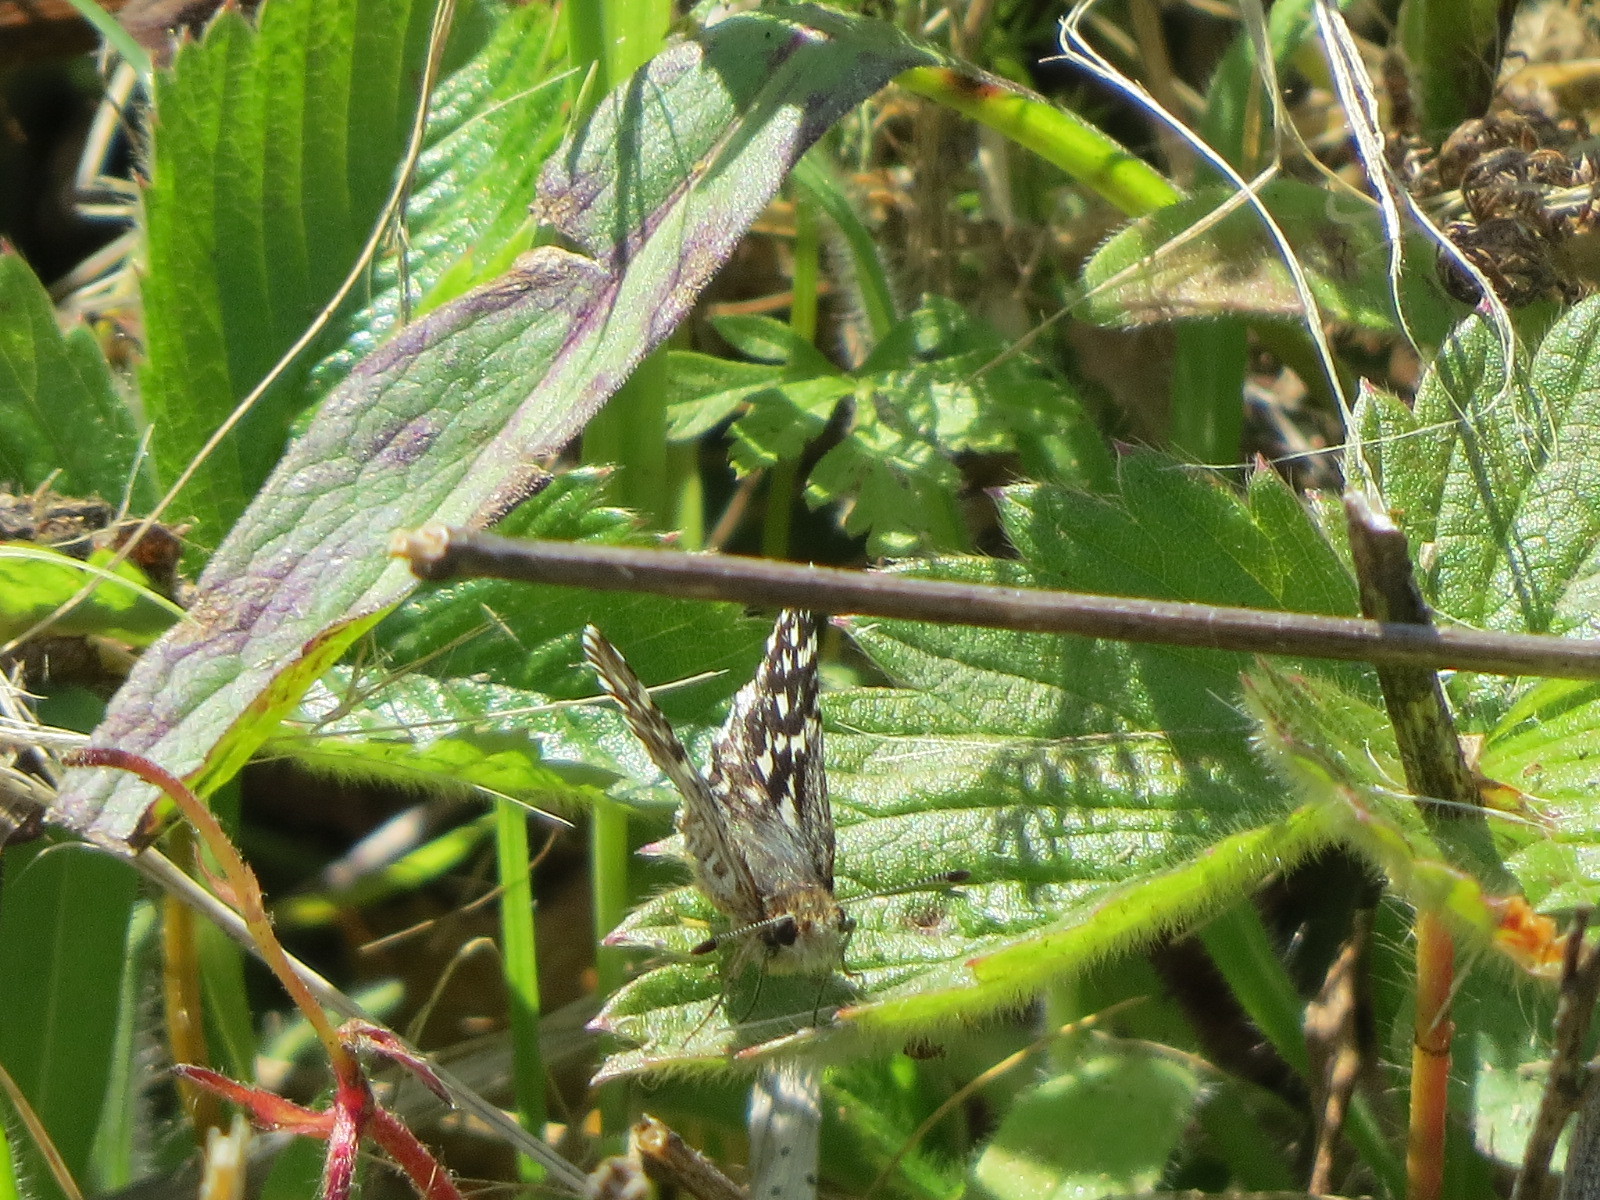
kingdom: Animalia
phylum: Arthropoda
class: Insecta
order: Lepidoptera
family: Hesperiidae
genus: Pyrgus
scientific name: Pyrgus ruralis
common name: Two-banded checkered-skipper
